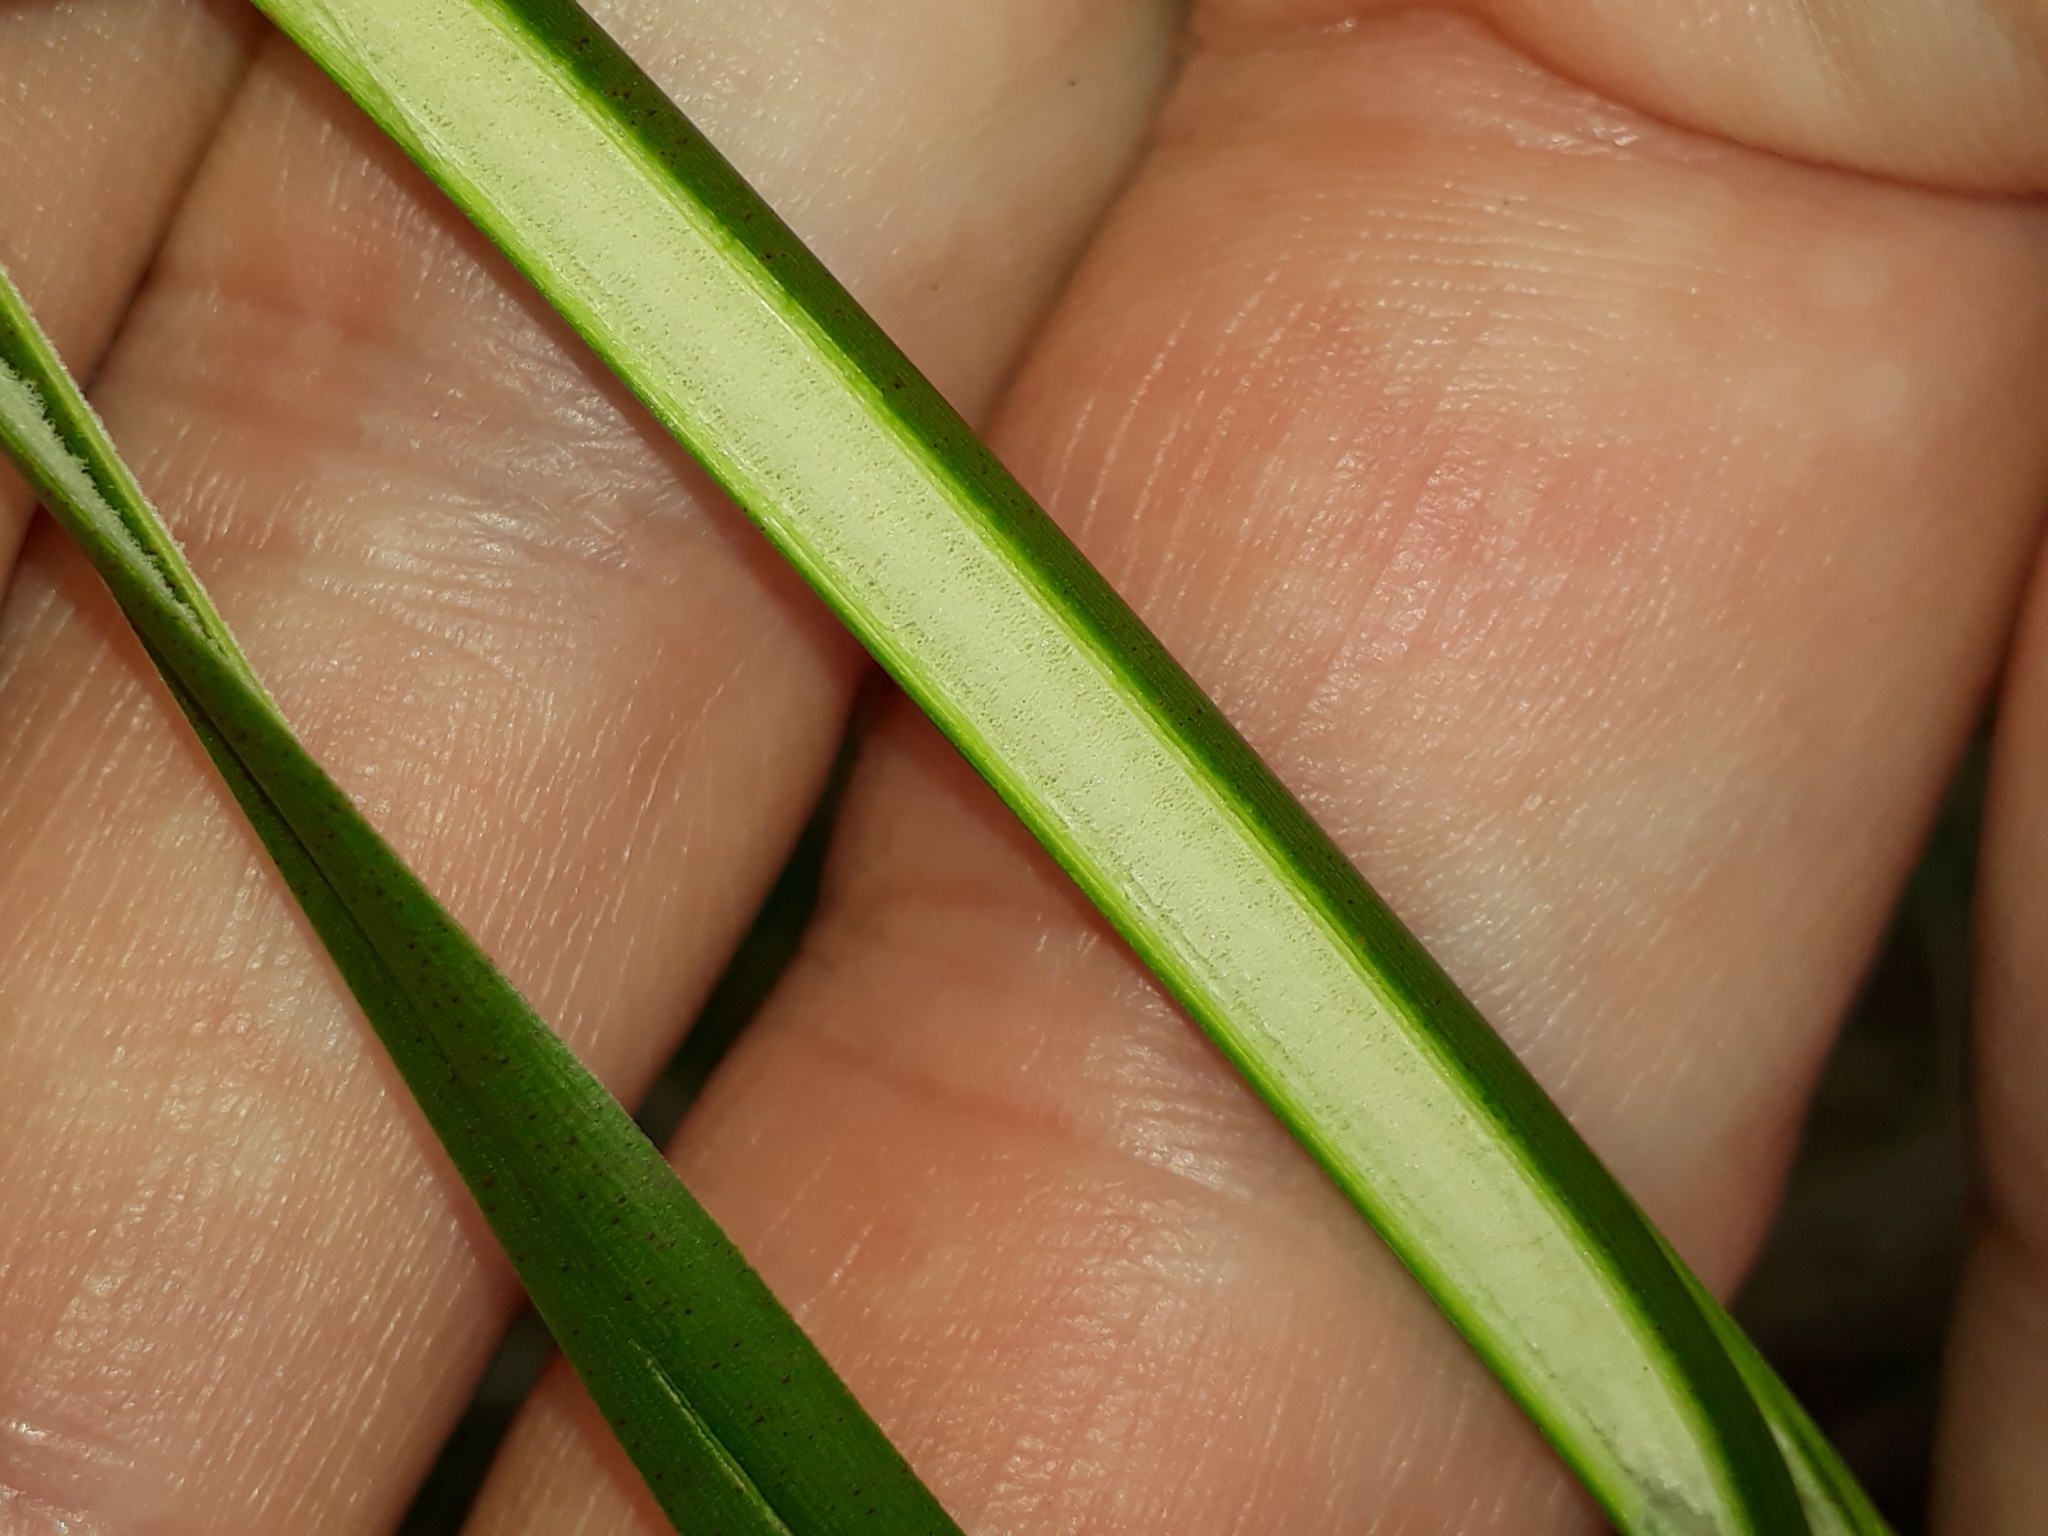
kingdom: Plantae
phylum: Tracheophyta
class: Liliopsida
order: Poales
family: Juncaceae
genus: Juncus
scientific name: Juncus pallidus
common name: Great soft-rush
